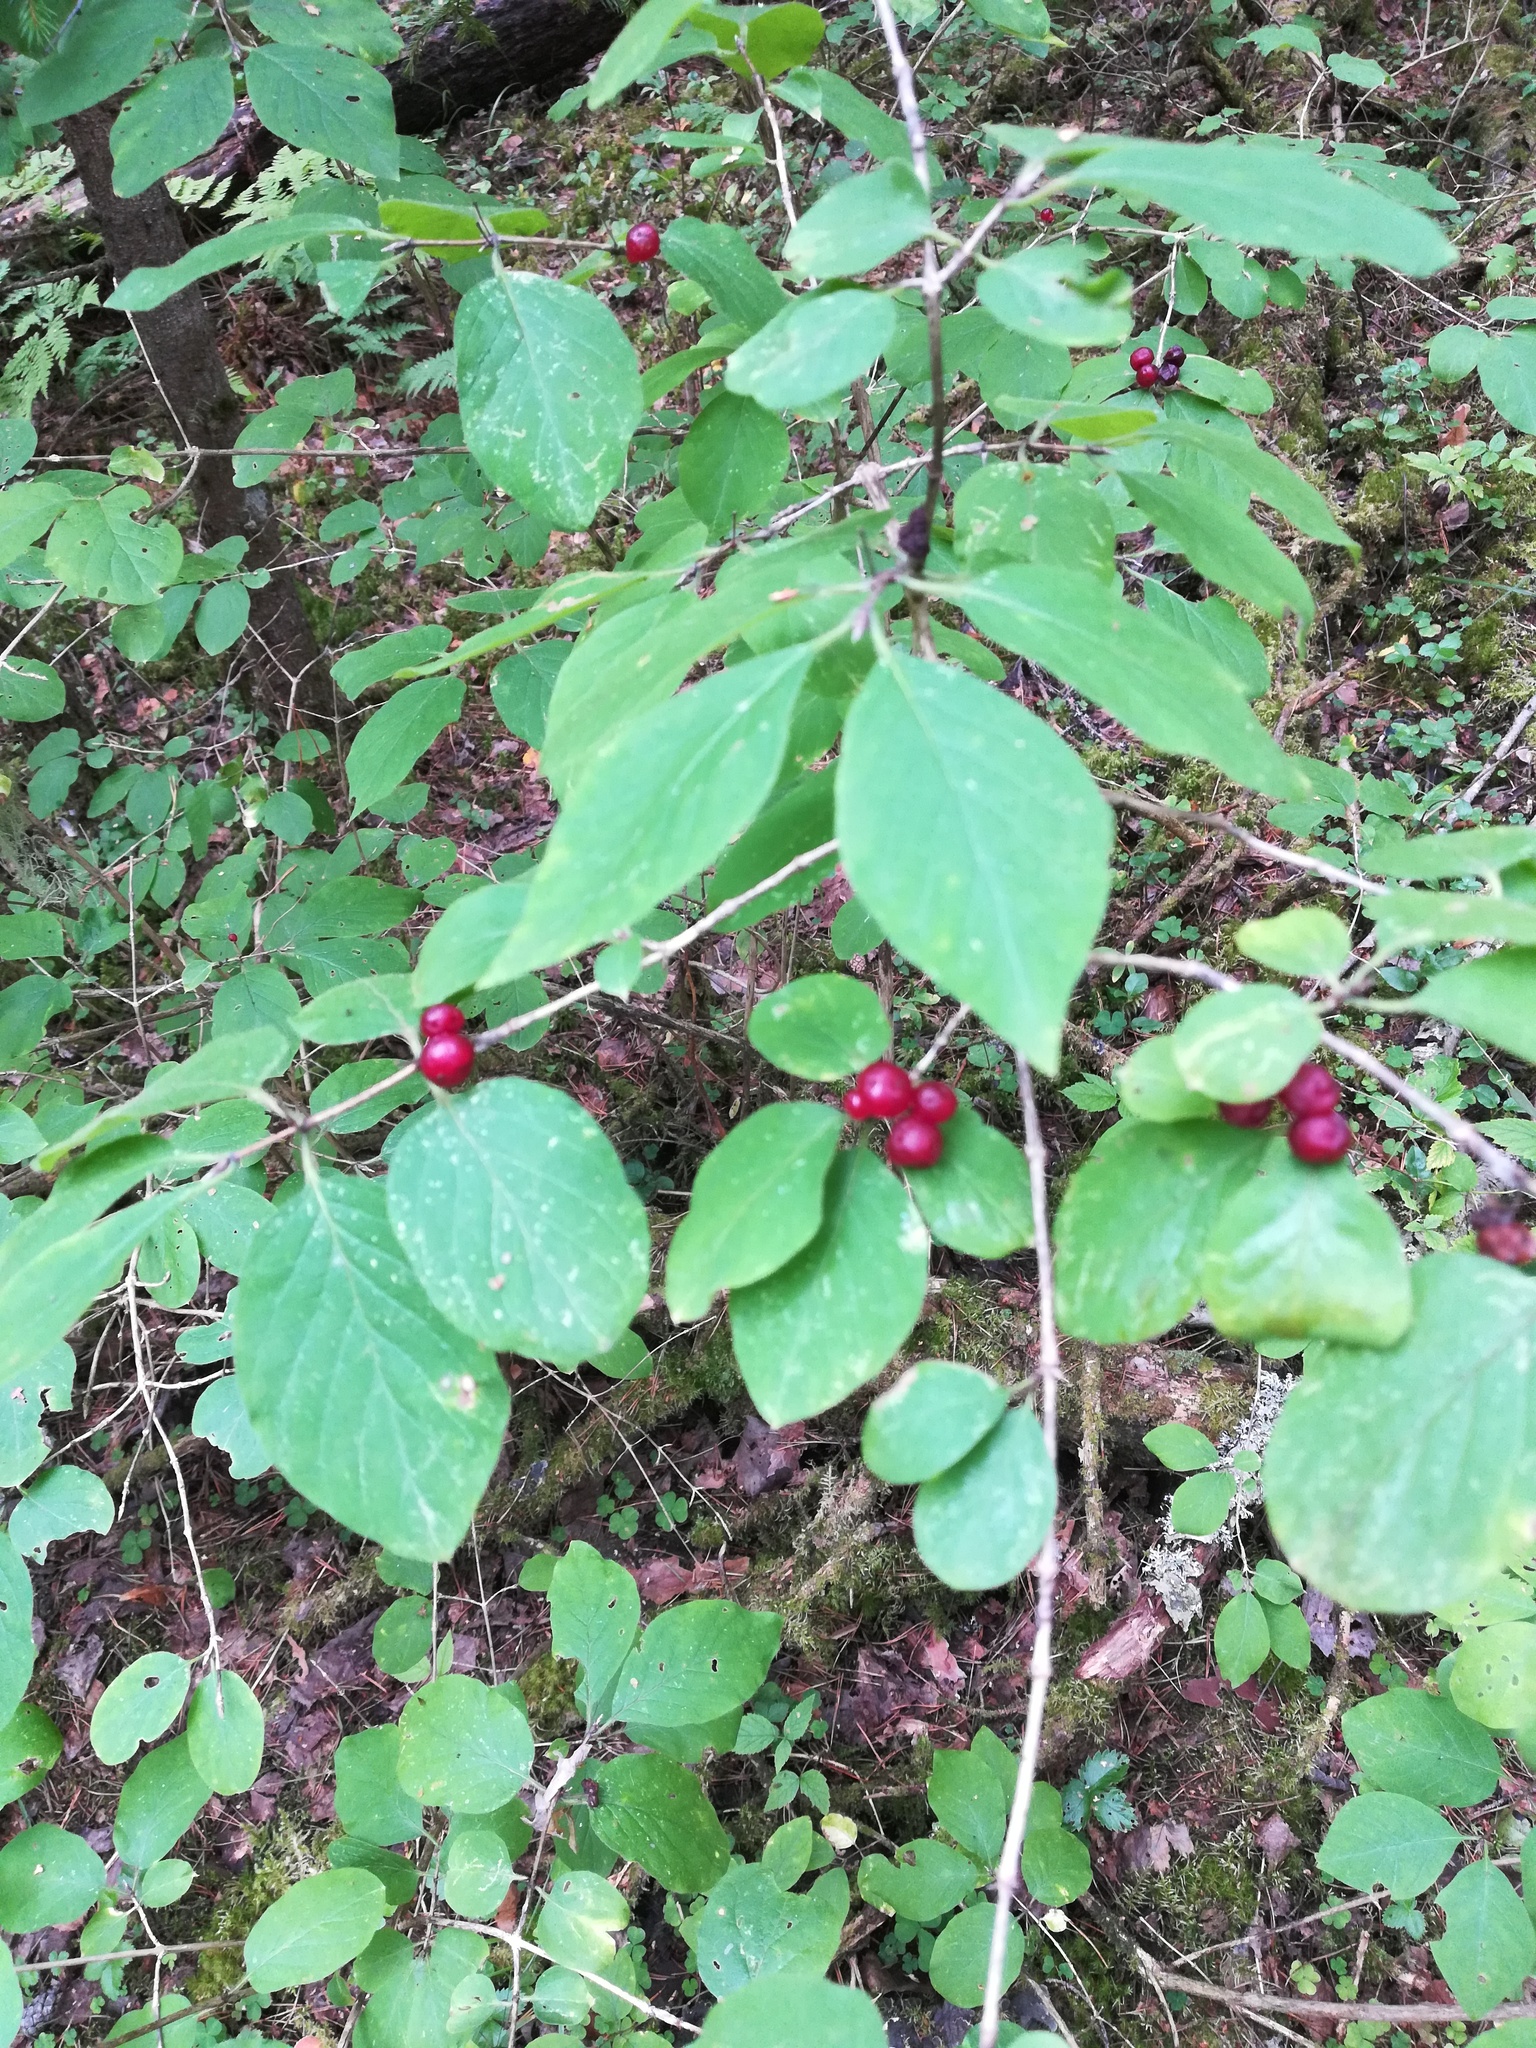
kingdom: Plantae
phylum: Tracheophyta
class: Magnoliopsida
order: Dipsacales
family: Caprifoliaceae
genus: Lonicera
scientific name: Lonicera xylosteum
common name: Fly honeysuckle
